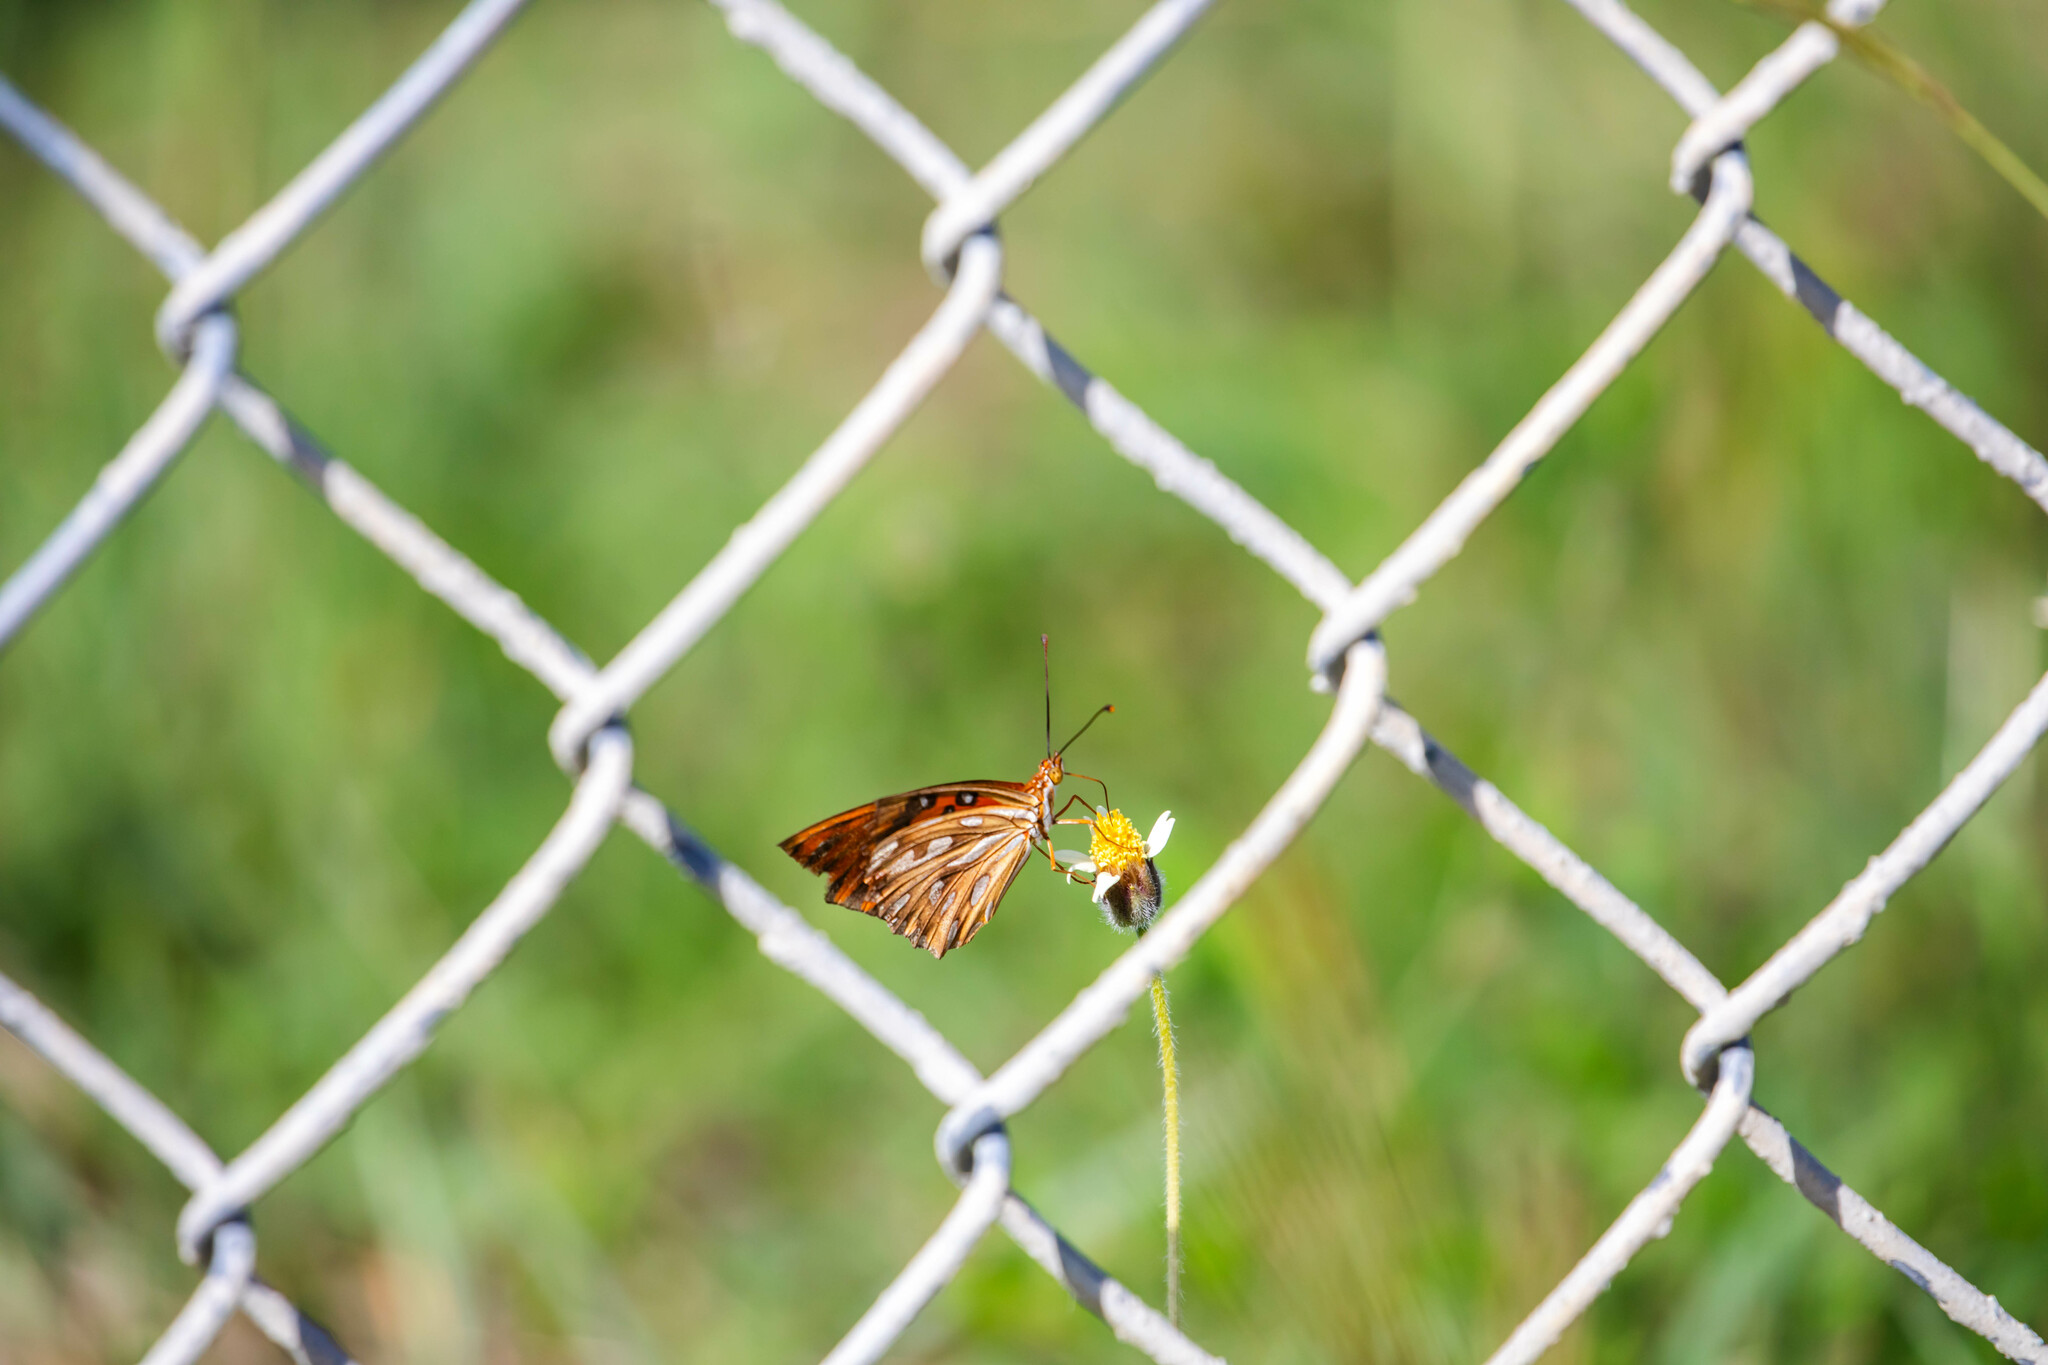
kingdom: Animalia
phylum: Arthropoda
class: Insecta
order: Lepidoptera
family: Nymphalidae
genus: Dione
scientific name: Dione vanillae
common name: Gulf fritillary
